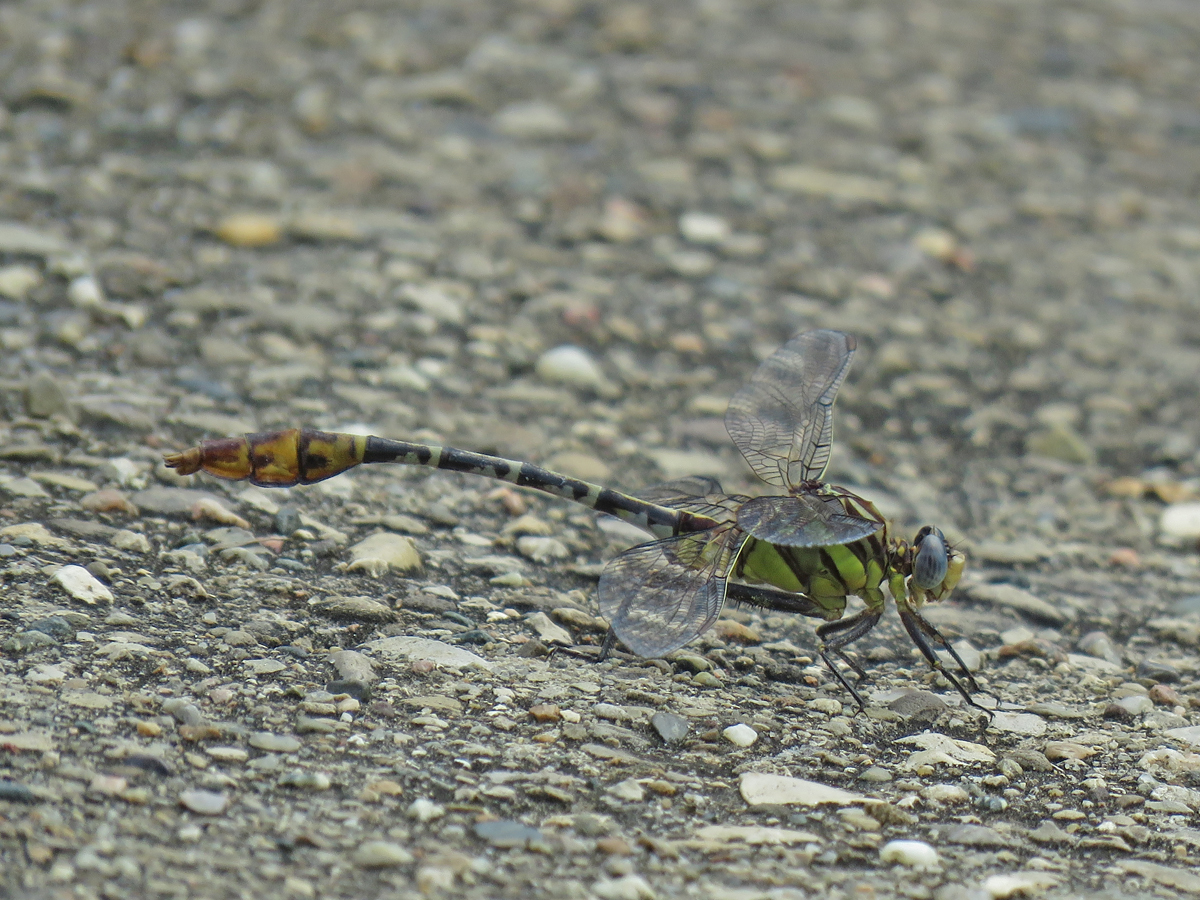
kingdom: Animalia
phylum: Arthropoda
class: Insecta
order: Odonata
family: Gomphidae
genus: Dromogomphus
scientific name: Dromogomphus spoliatus
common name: Flag-tailed spinyleg
